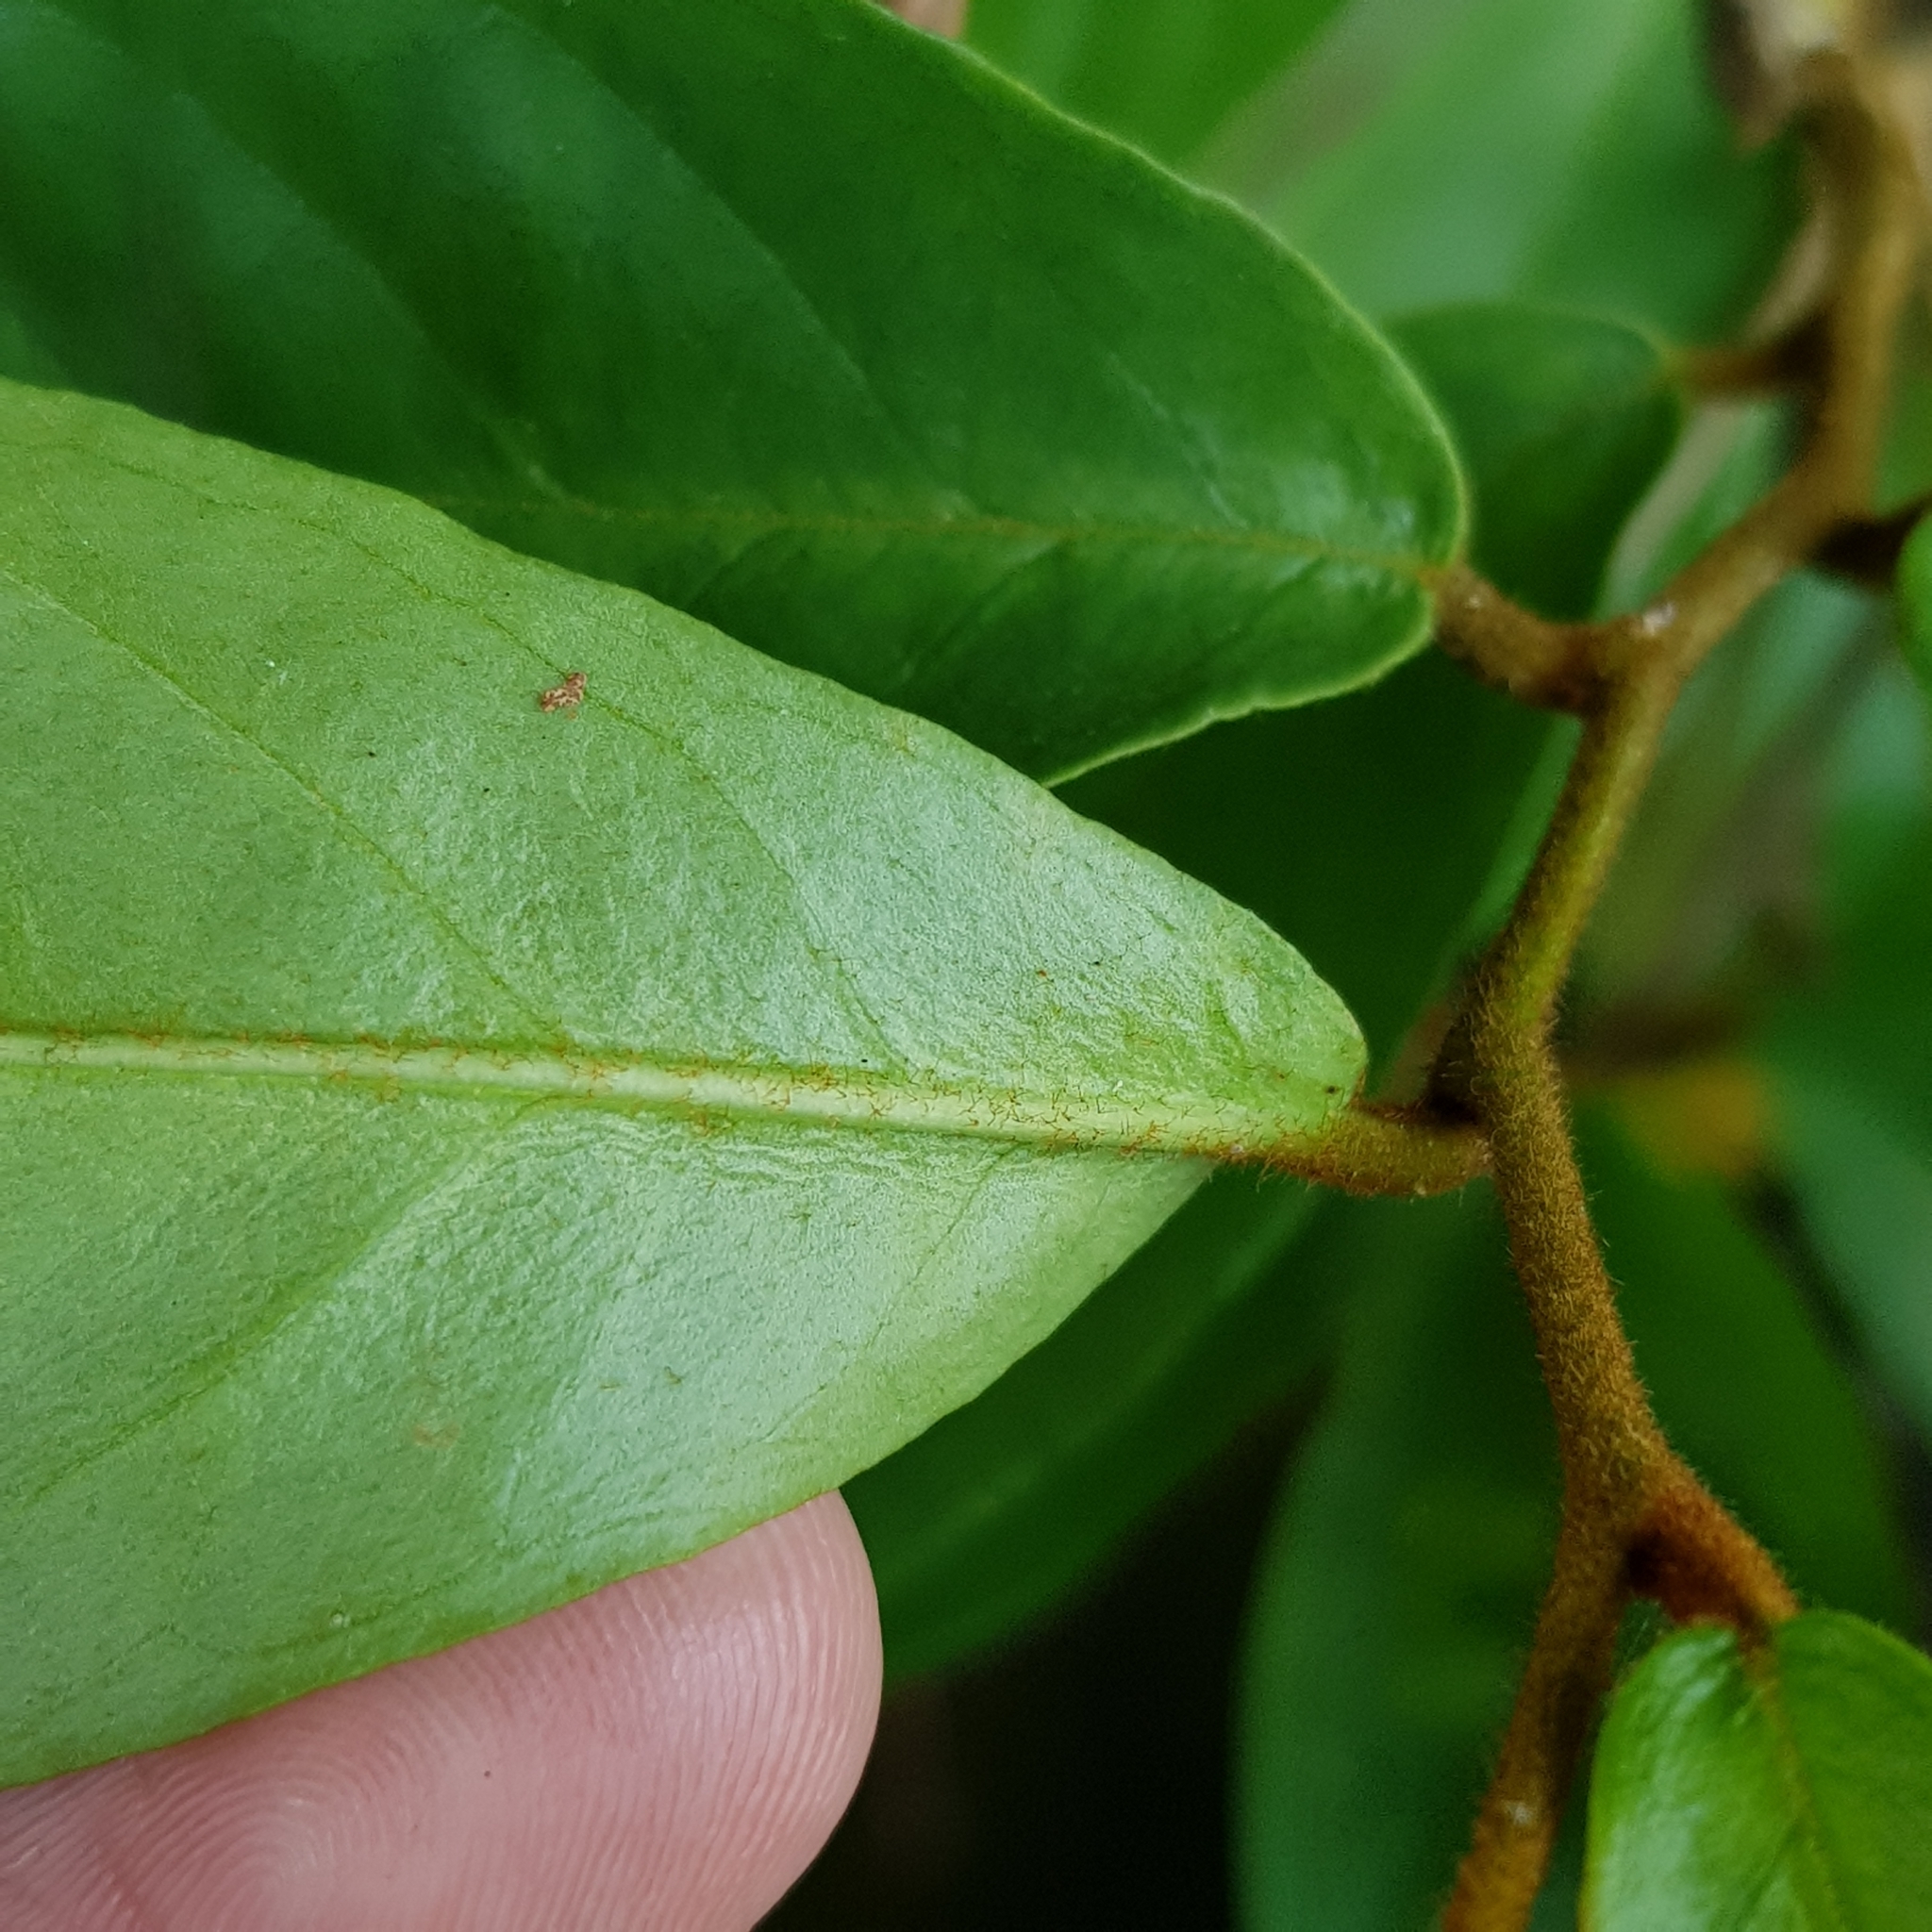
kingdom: Plantae
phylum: Tracheophyta
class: Magnoliopsida
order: Solanales
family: Convolvulaceae
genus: Erycibe
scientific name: Erycibe tomentosa
